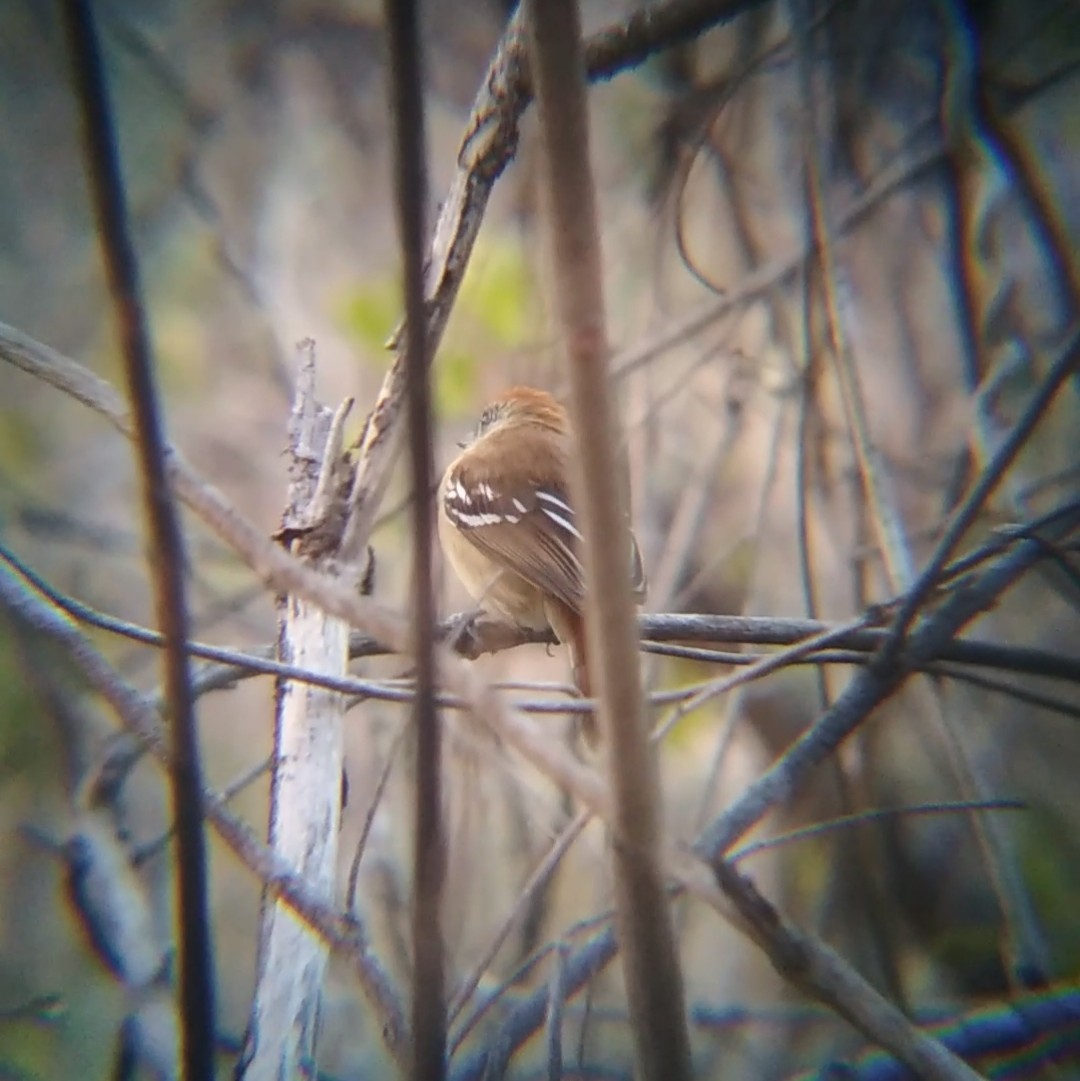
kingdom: Animalia
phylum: Chordata
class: Aves
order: Passeriformes
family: Thamnophilidae
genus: Thamnophilus
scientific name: Thamnophilus pelzelni
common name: Planalto slaty-antshrike
